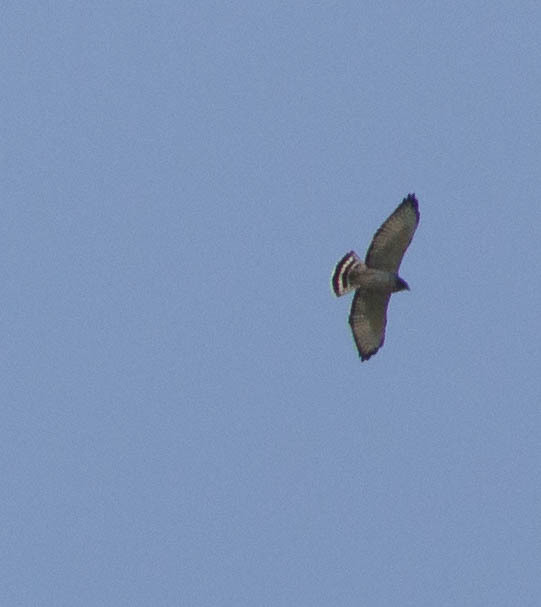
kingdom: Animalia
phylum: Chordata
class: Aves
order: Accipitriformes
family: Accipitridae
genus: Buteo
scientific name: Buteo platypterus
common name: Broad-winged hawk
